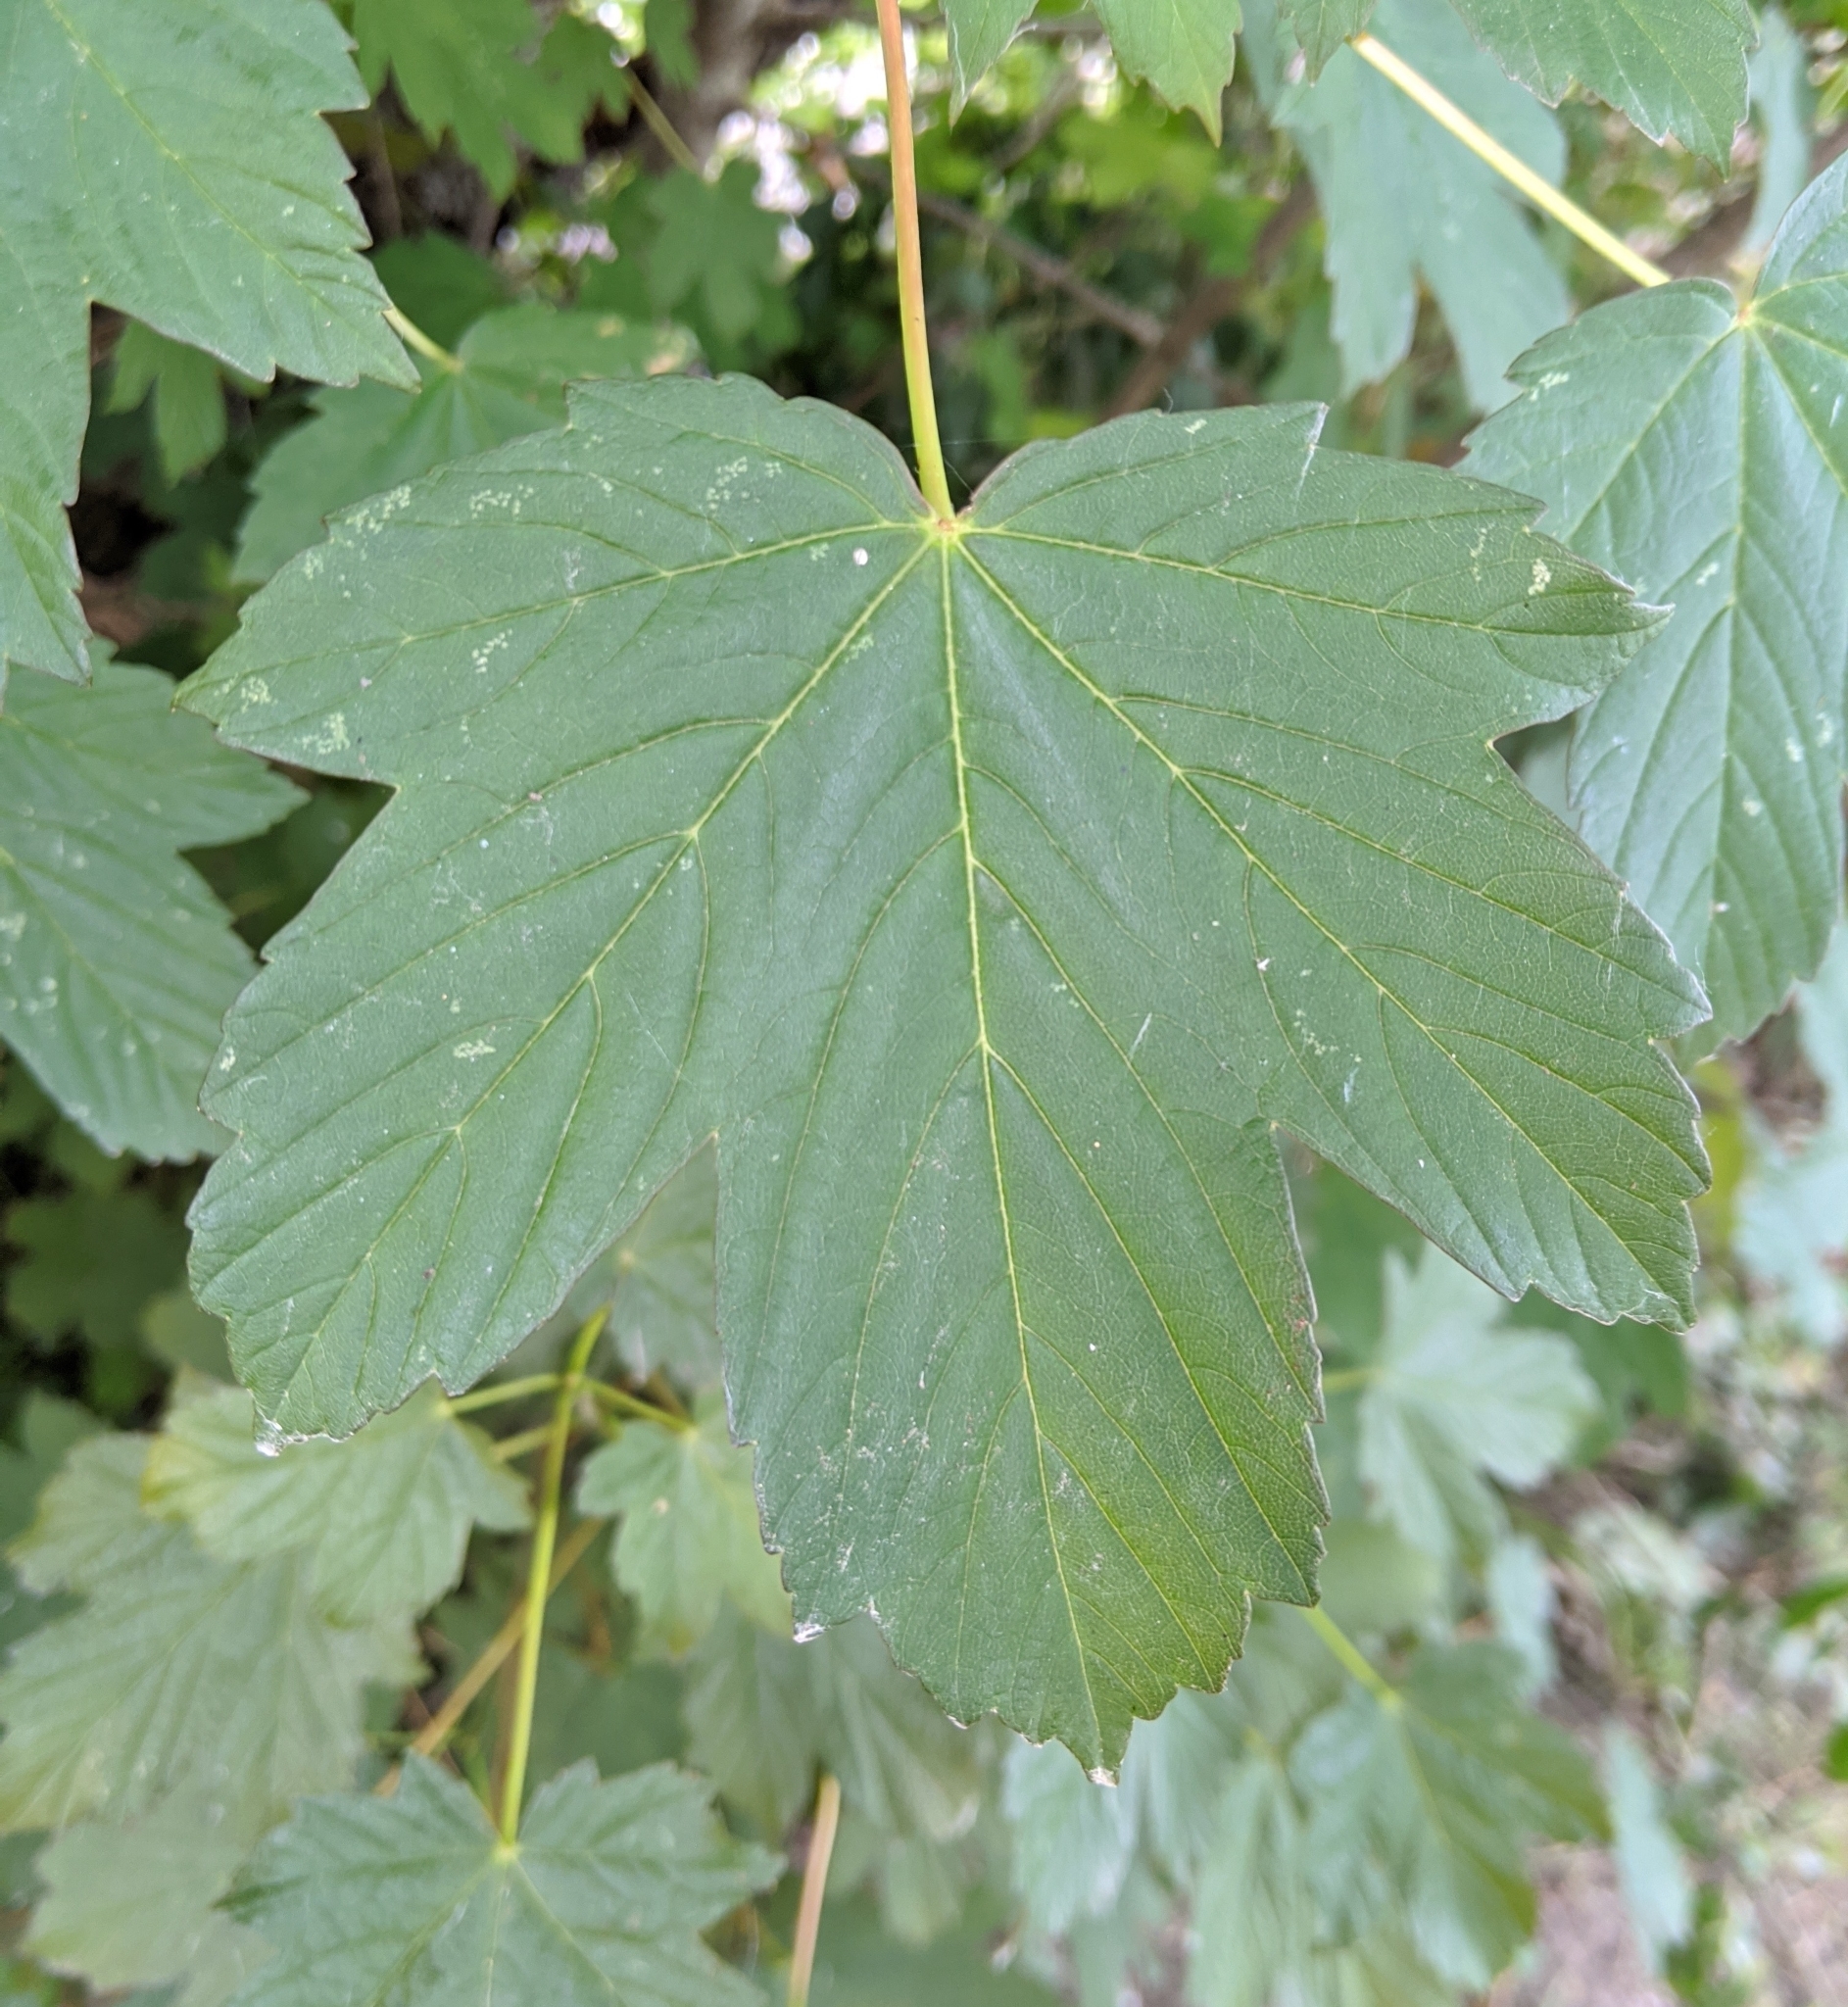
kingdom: Animalia
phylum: Arthropoda
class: Arachnida
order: Trombidiformes
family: Eriophyidae
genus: Aceria
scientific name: Aceria cephaloneus
